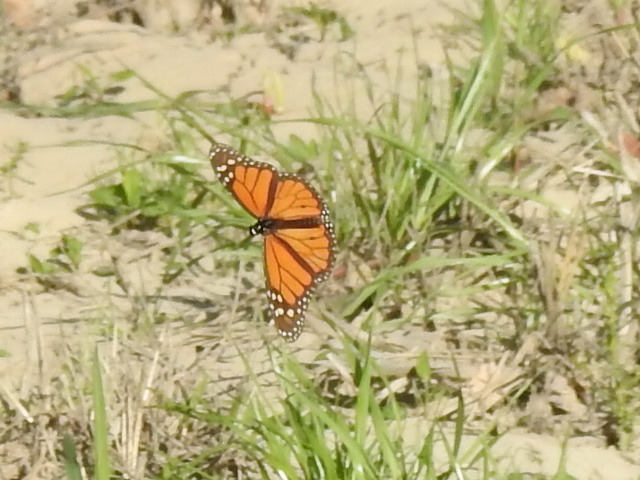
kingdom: Animalia
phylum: Arthropoda
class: Insecta
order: Lepidoptera
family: Nymphalidae
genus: Danaus
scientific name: Danaus plexippus
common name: Monarch
